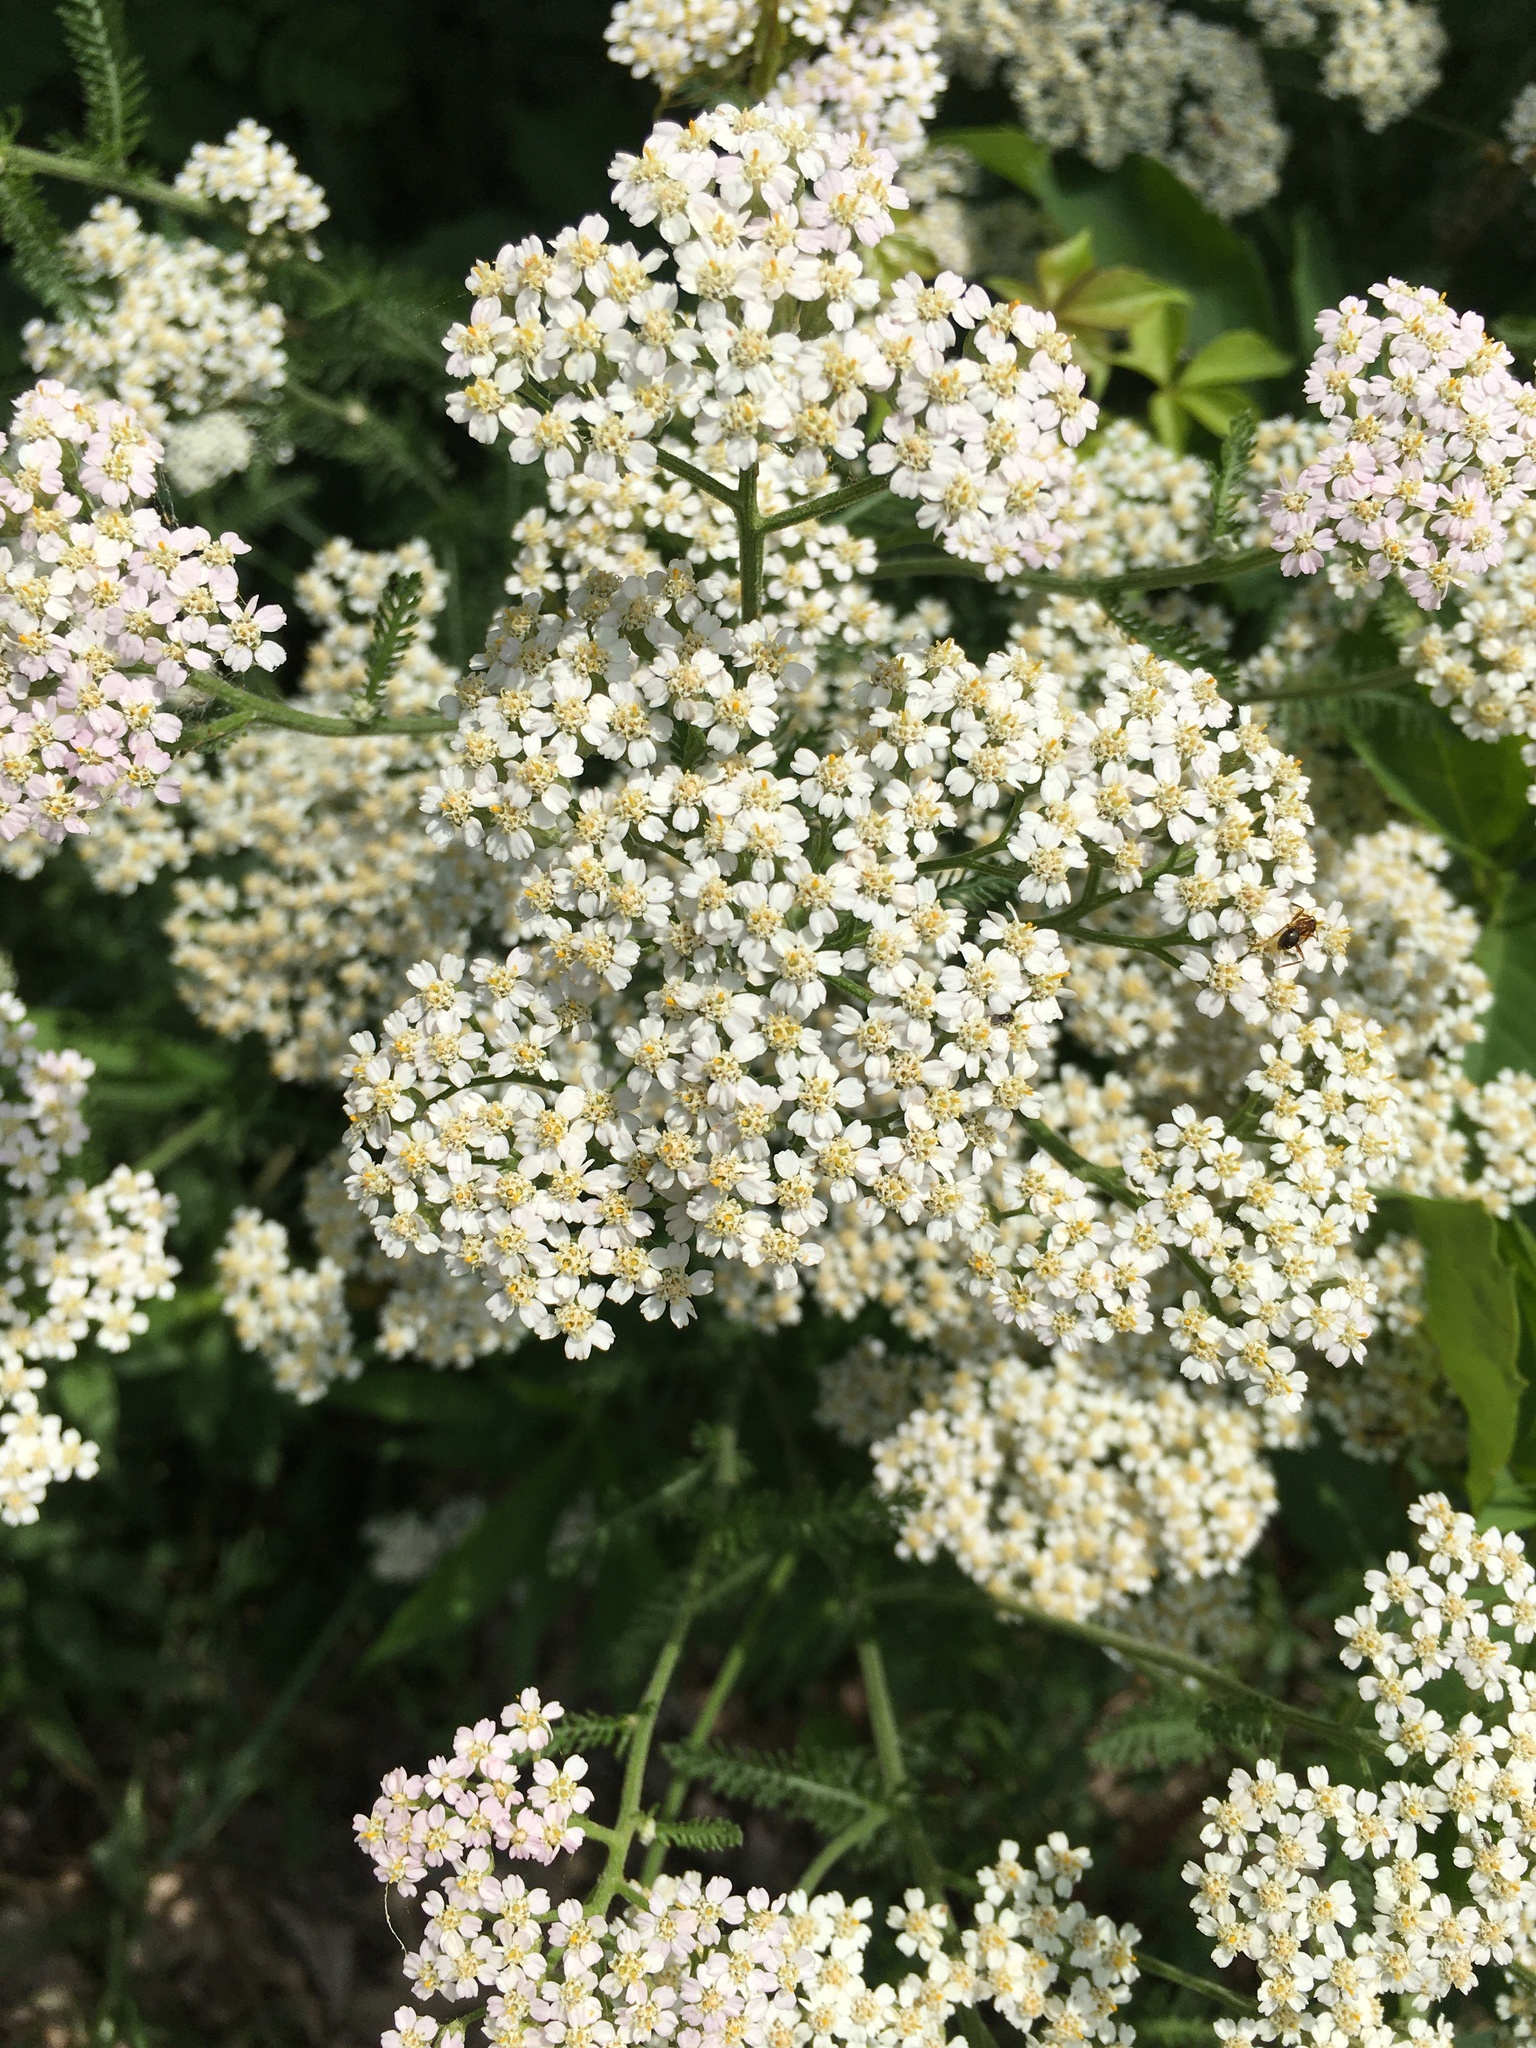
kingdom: Plantae
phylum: Tracheophyta
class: Magnoliopsida
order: Asterales
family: Asteraceae
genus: Achillea
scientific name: Achillea millefolium
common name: Yarrow
